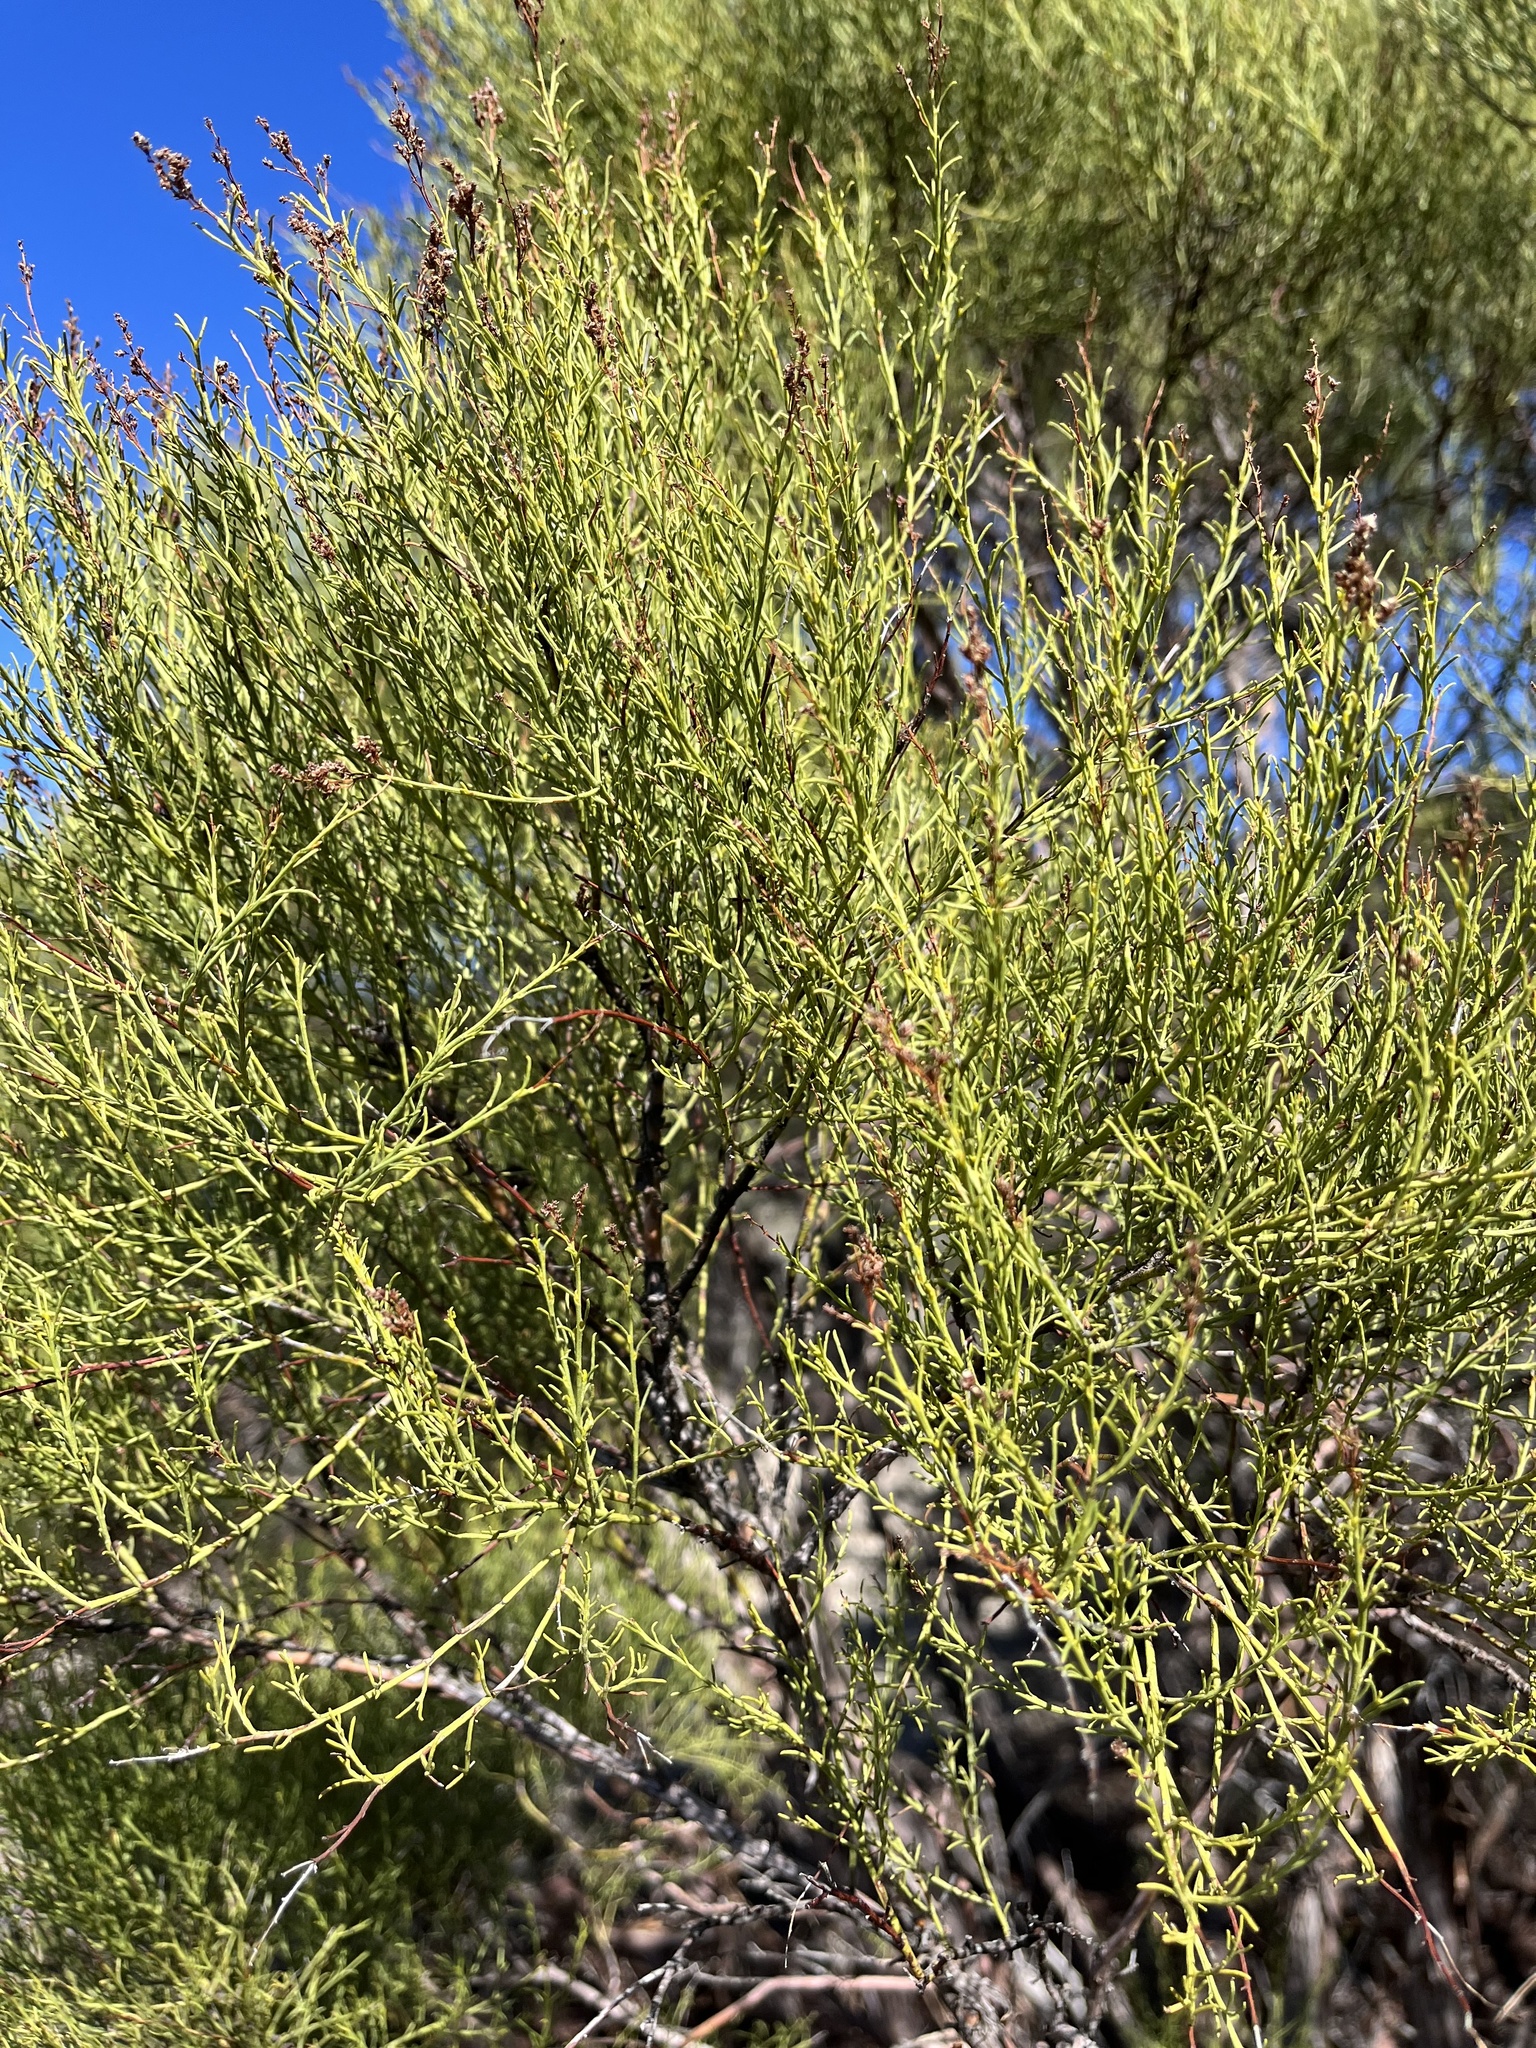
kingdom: Plantae
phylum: Tracheophyta
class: Magnoliopsida
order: Rosales
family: Rosaceae
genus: Adenostoma
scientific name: Adenostoma sparsifolium
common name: Red shank
